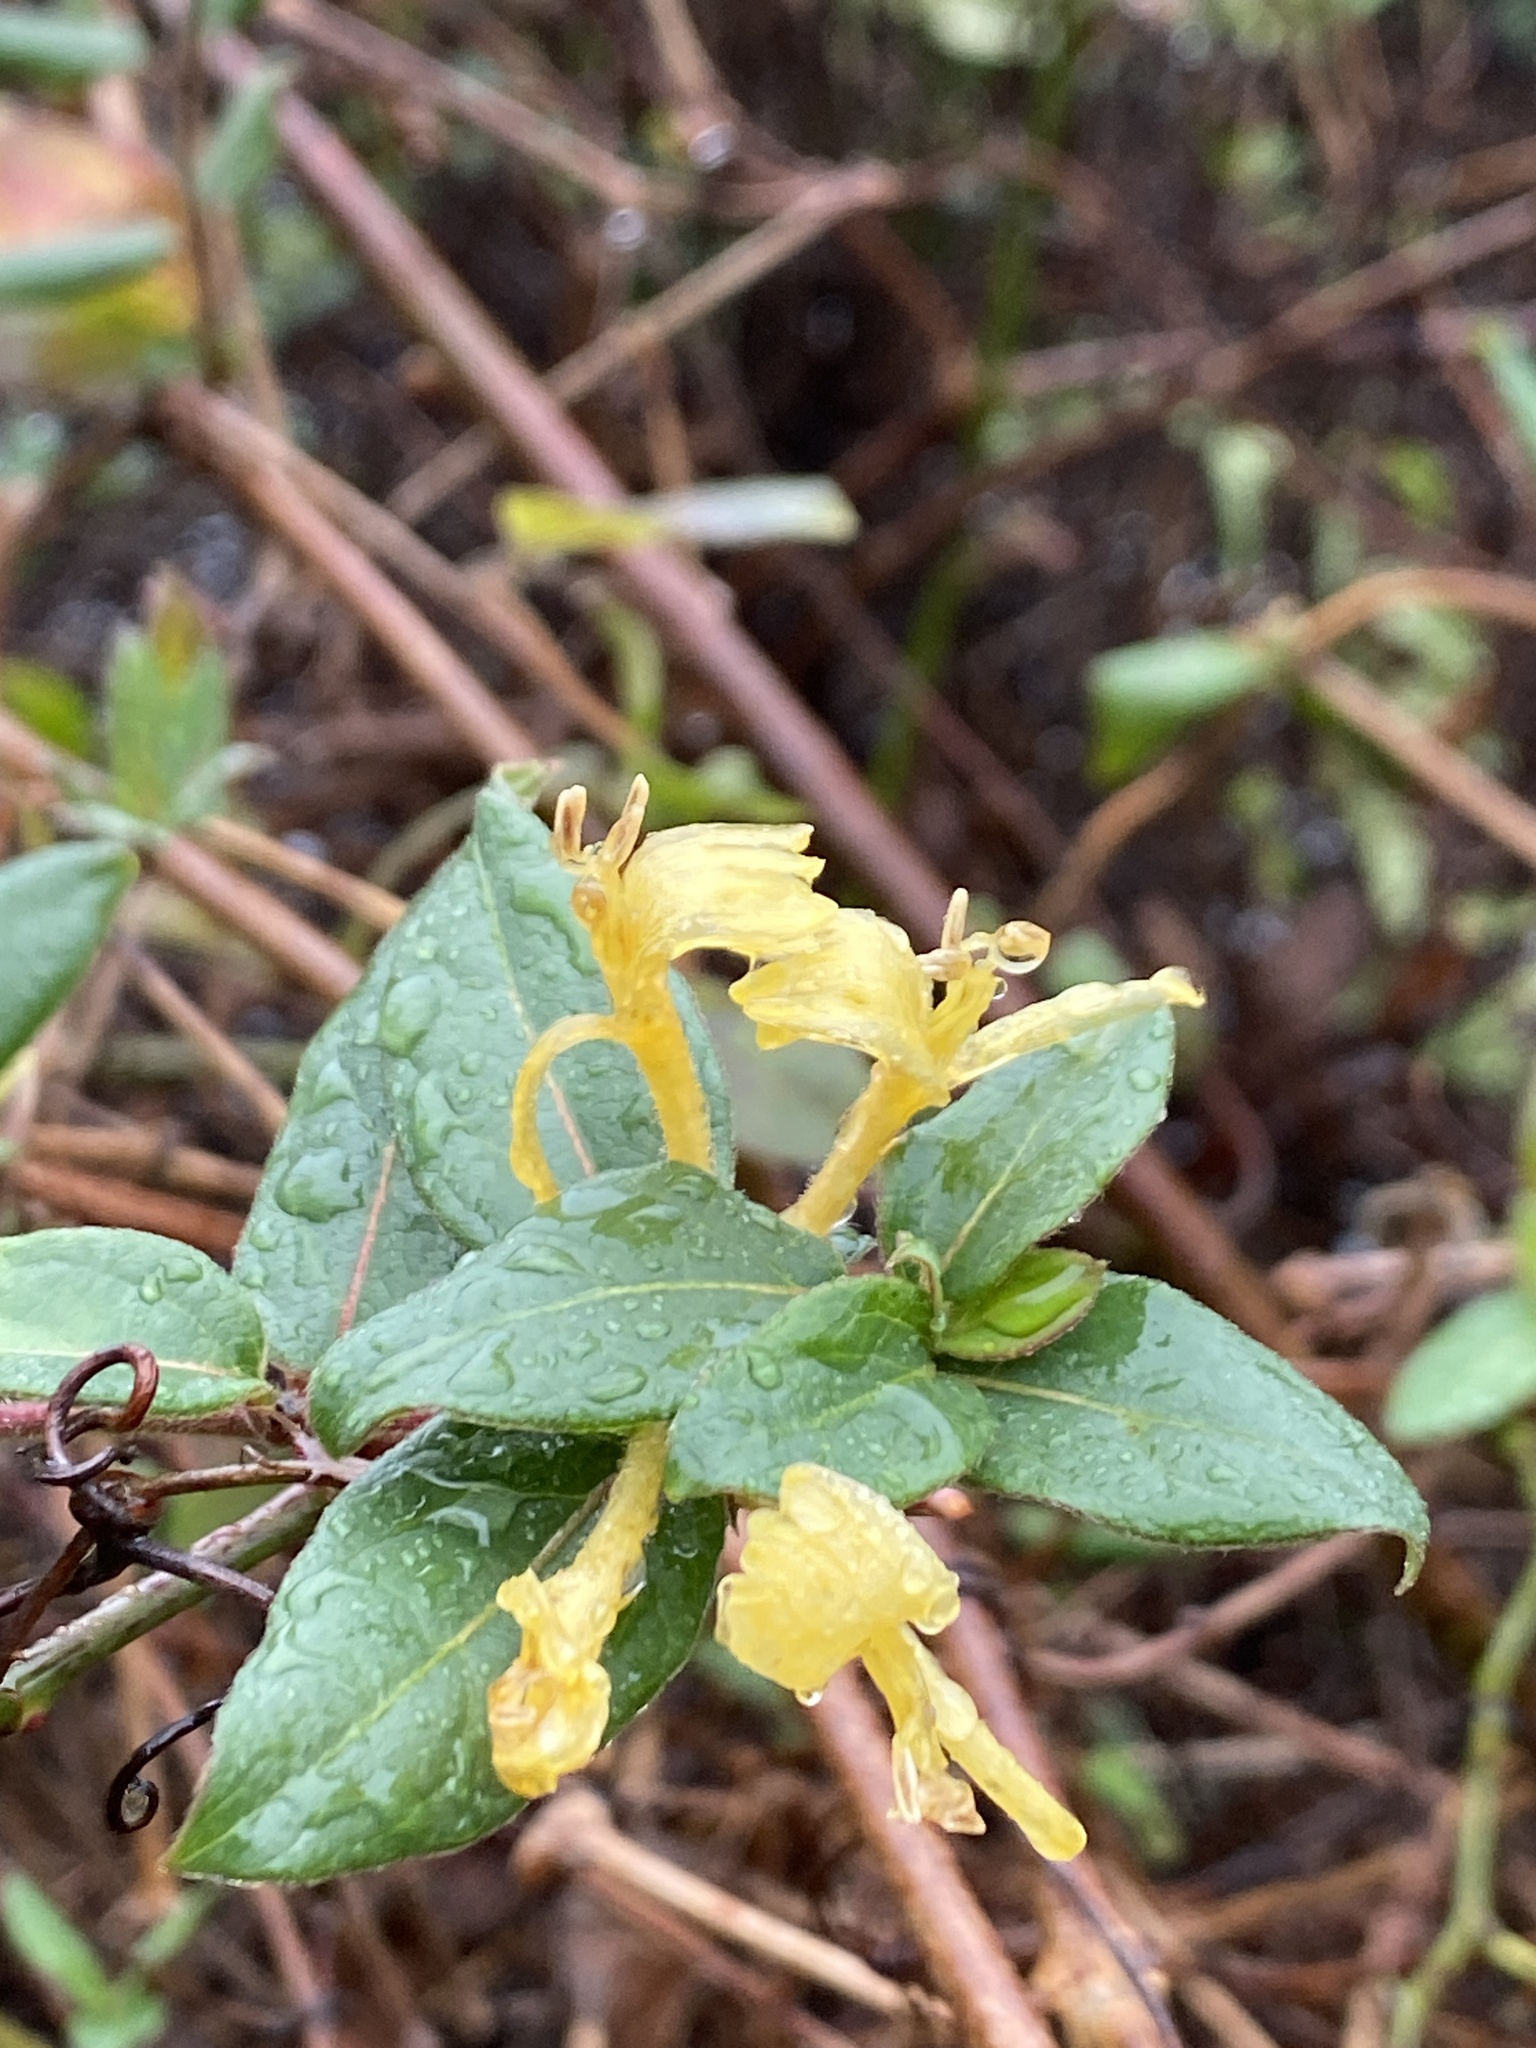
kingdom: Plantae
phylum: Tracheophyta
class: Magnoliopsida
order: Dipsacales
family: Caprifoliaceae
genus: Lonicera
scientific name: Lonicera japonica
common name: Japanese honeysuckle
